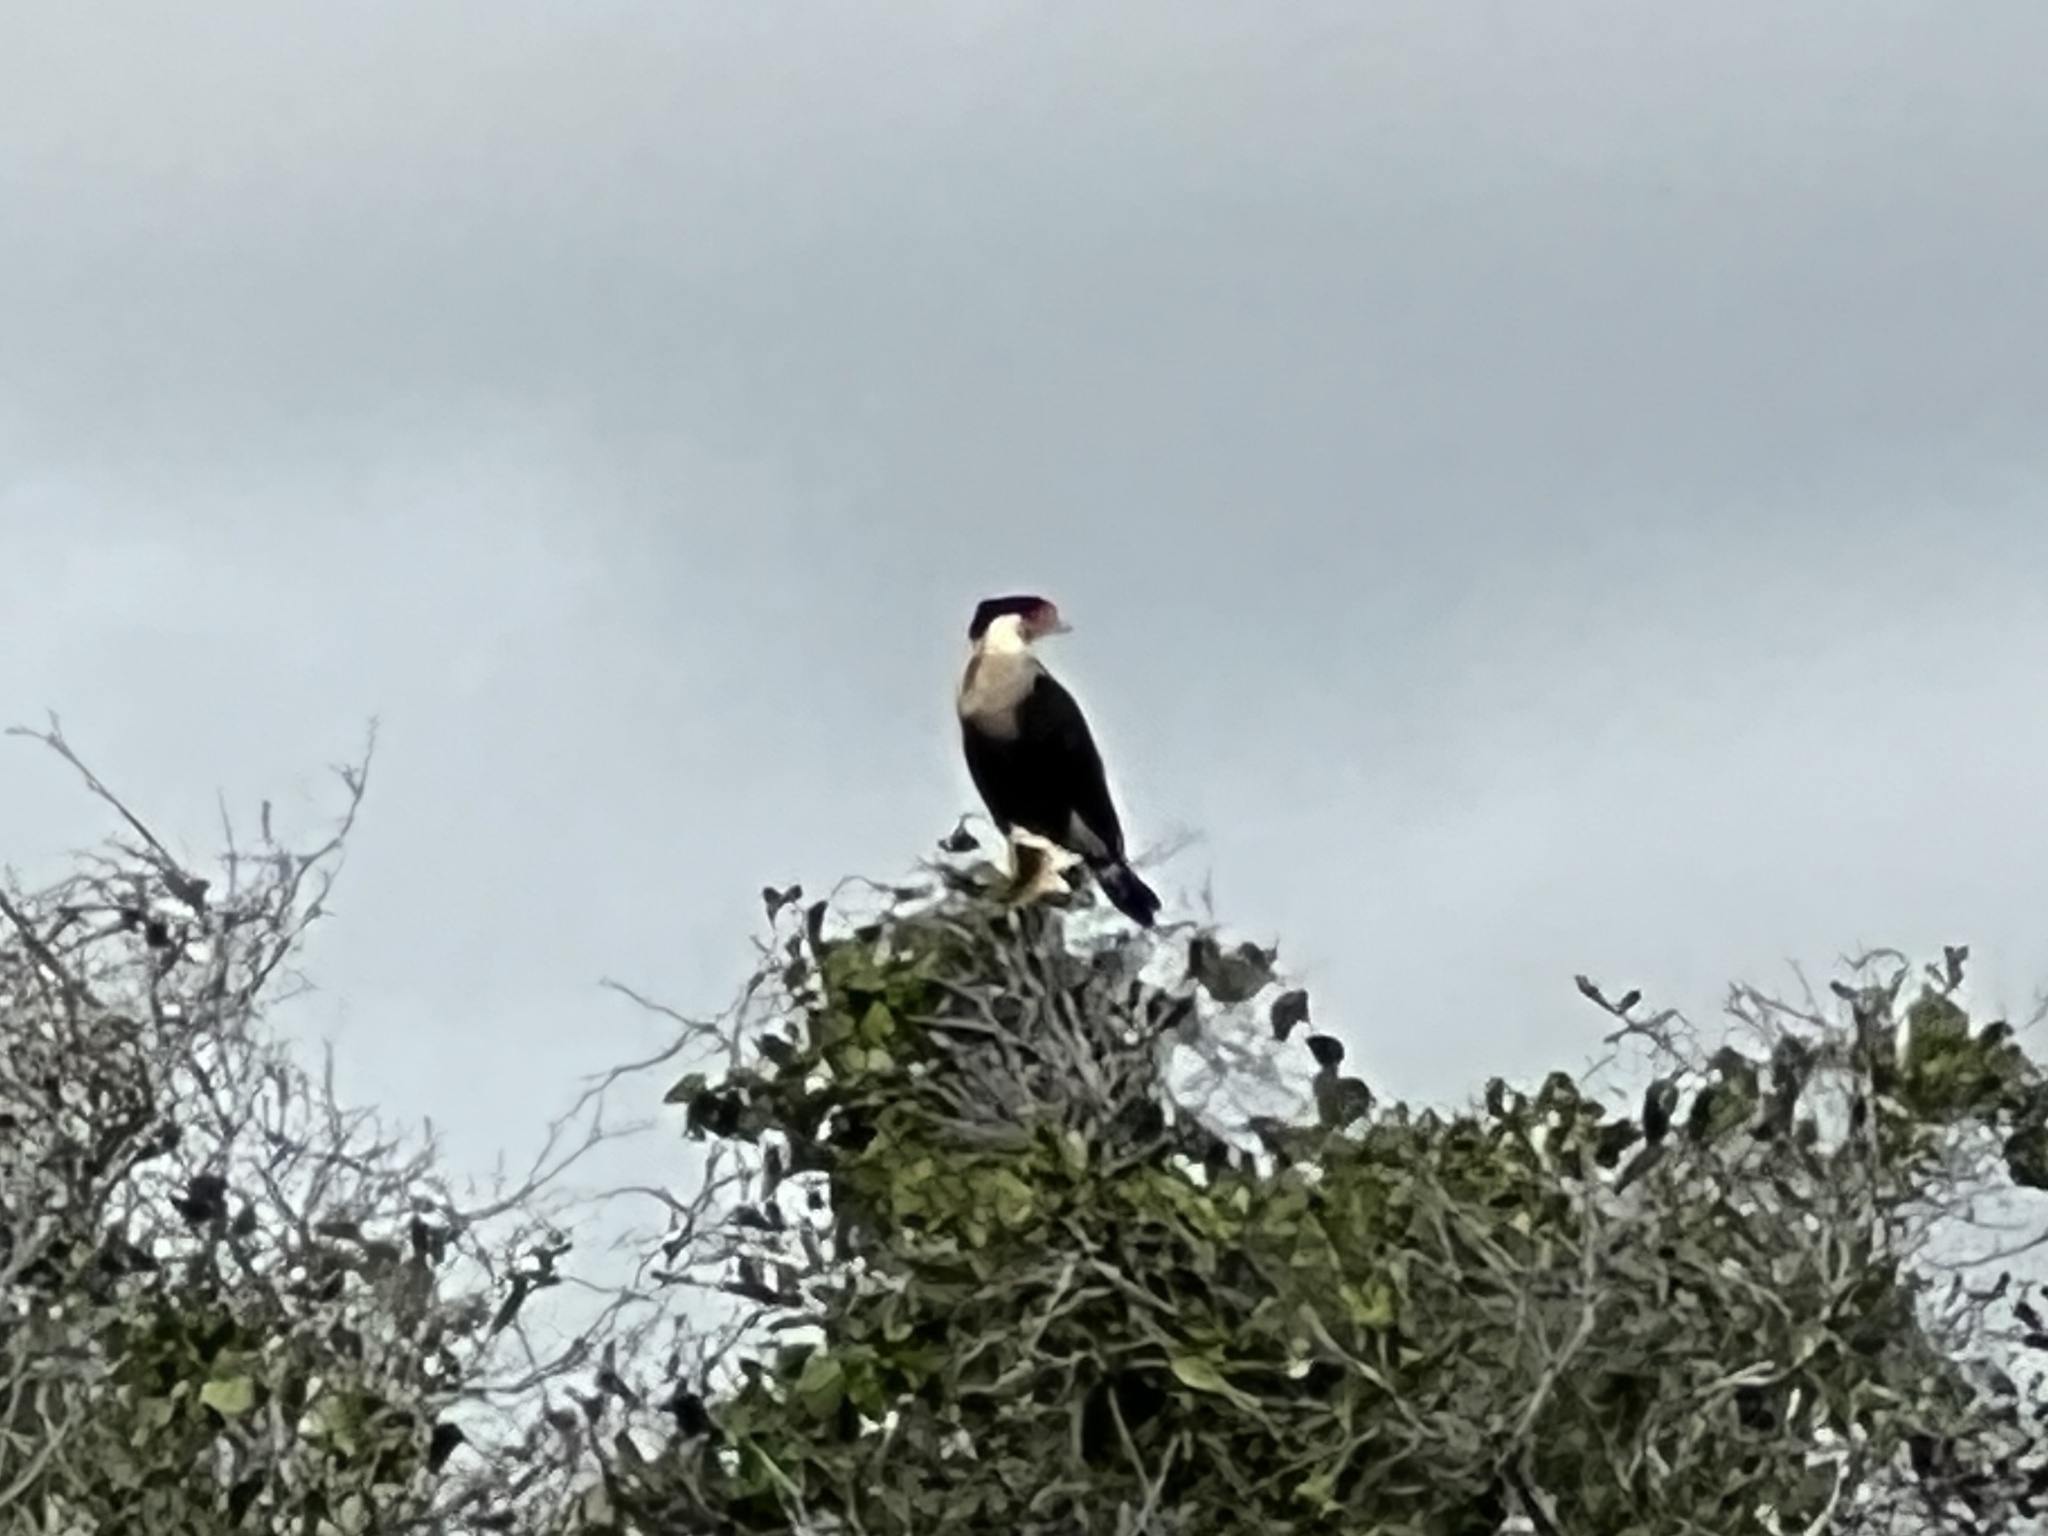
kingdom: Animalia
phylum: Chordata
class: Aves
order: Falconiformes
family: Falconidae
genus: Caracara
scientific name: Caracara plancus
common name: Southern caracara
